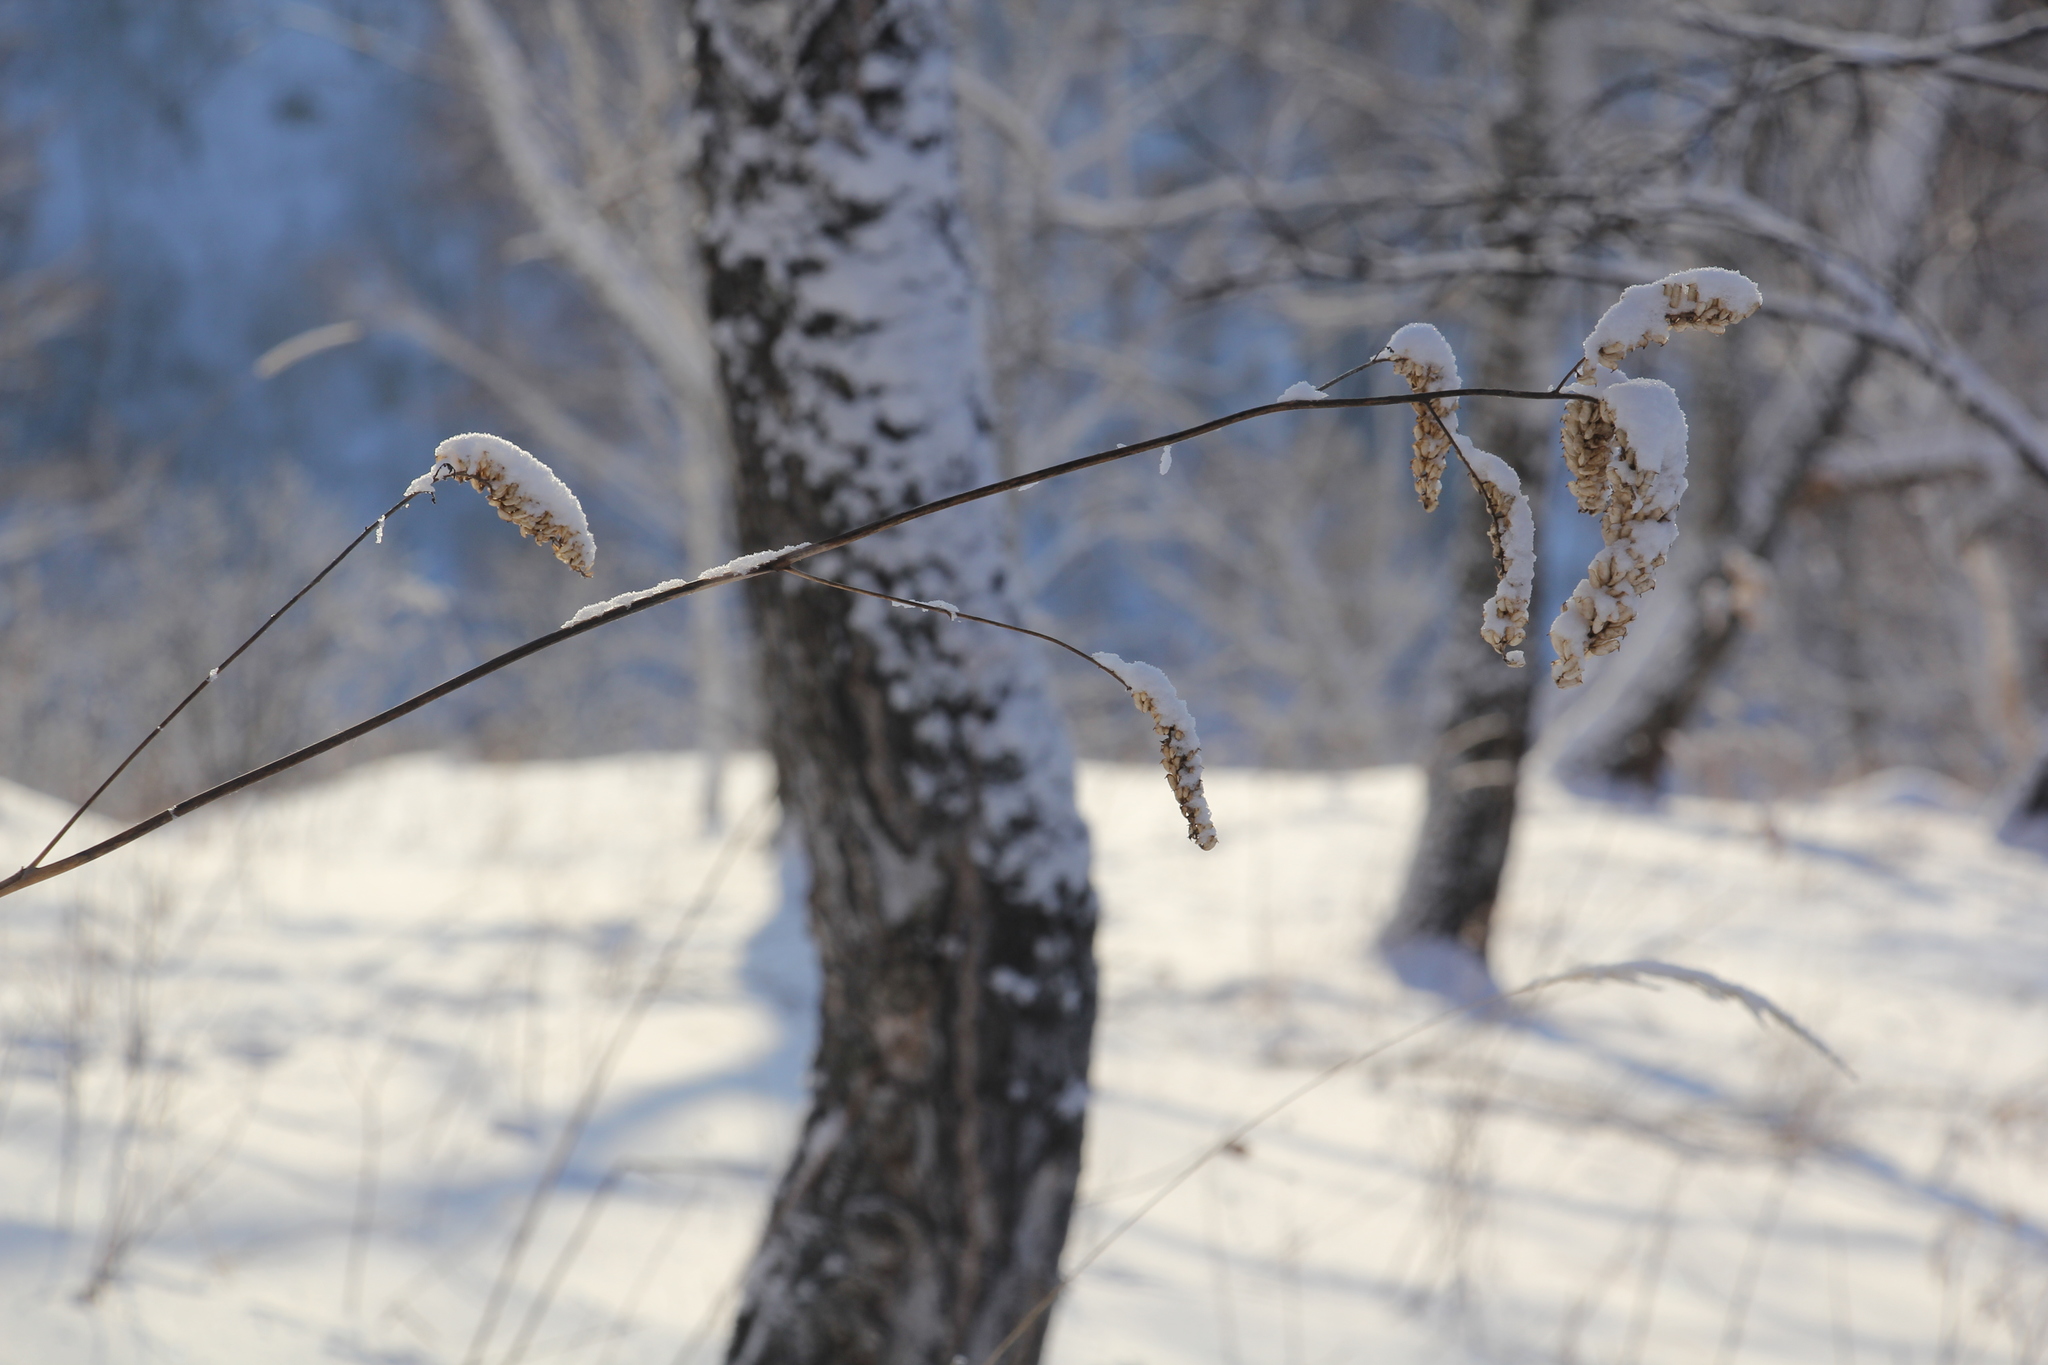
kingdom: Plantae
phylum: Tracheophyta
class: Magnoliopsida
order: Ranunculales
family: Ranunculaceae
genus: Actaea
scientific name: Actaea cimicifuga
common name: Chinese cimicifuga
